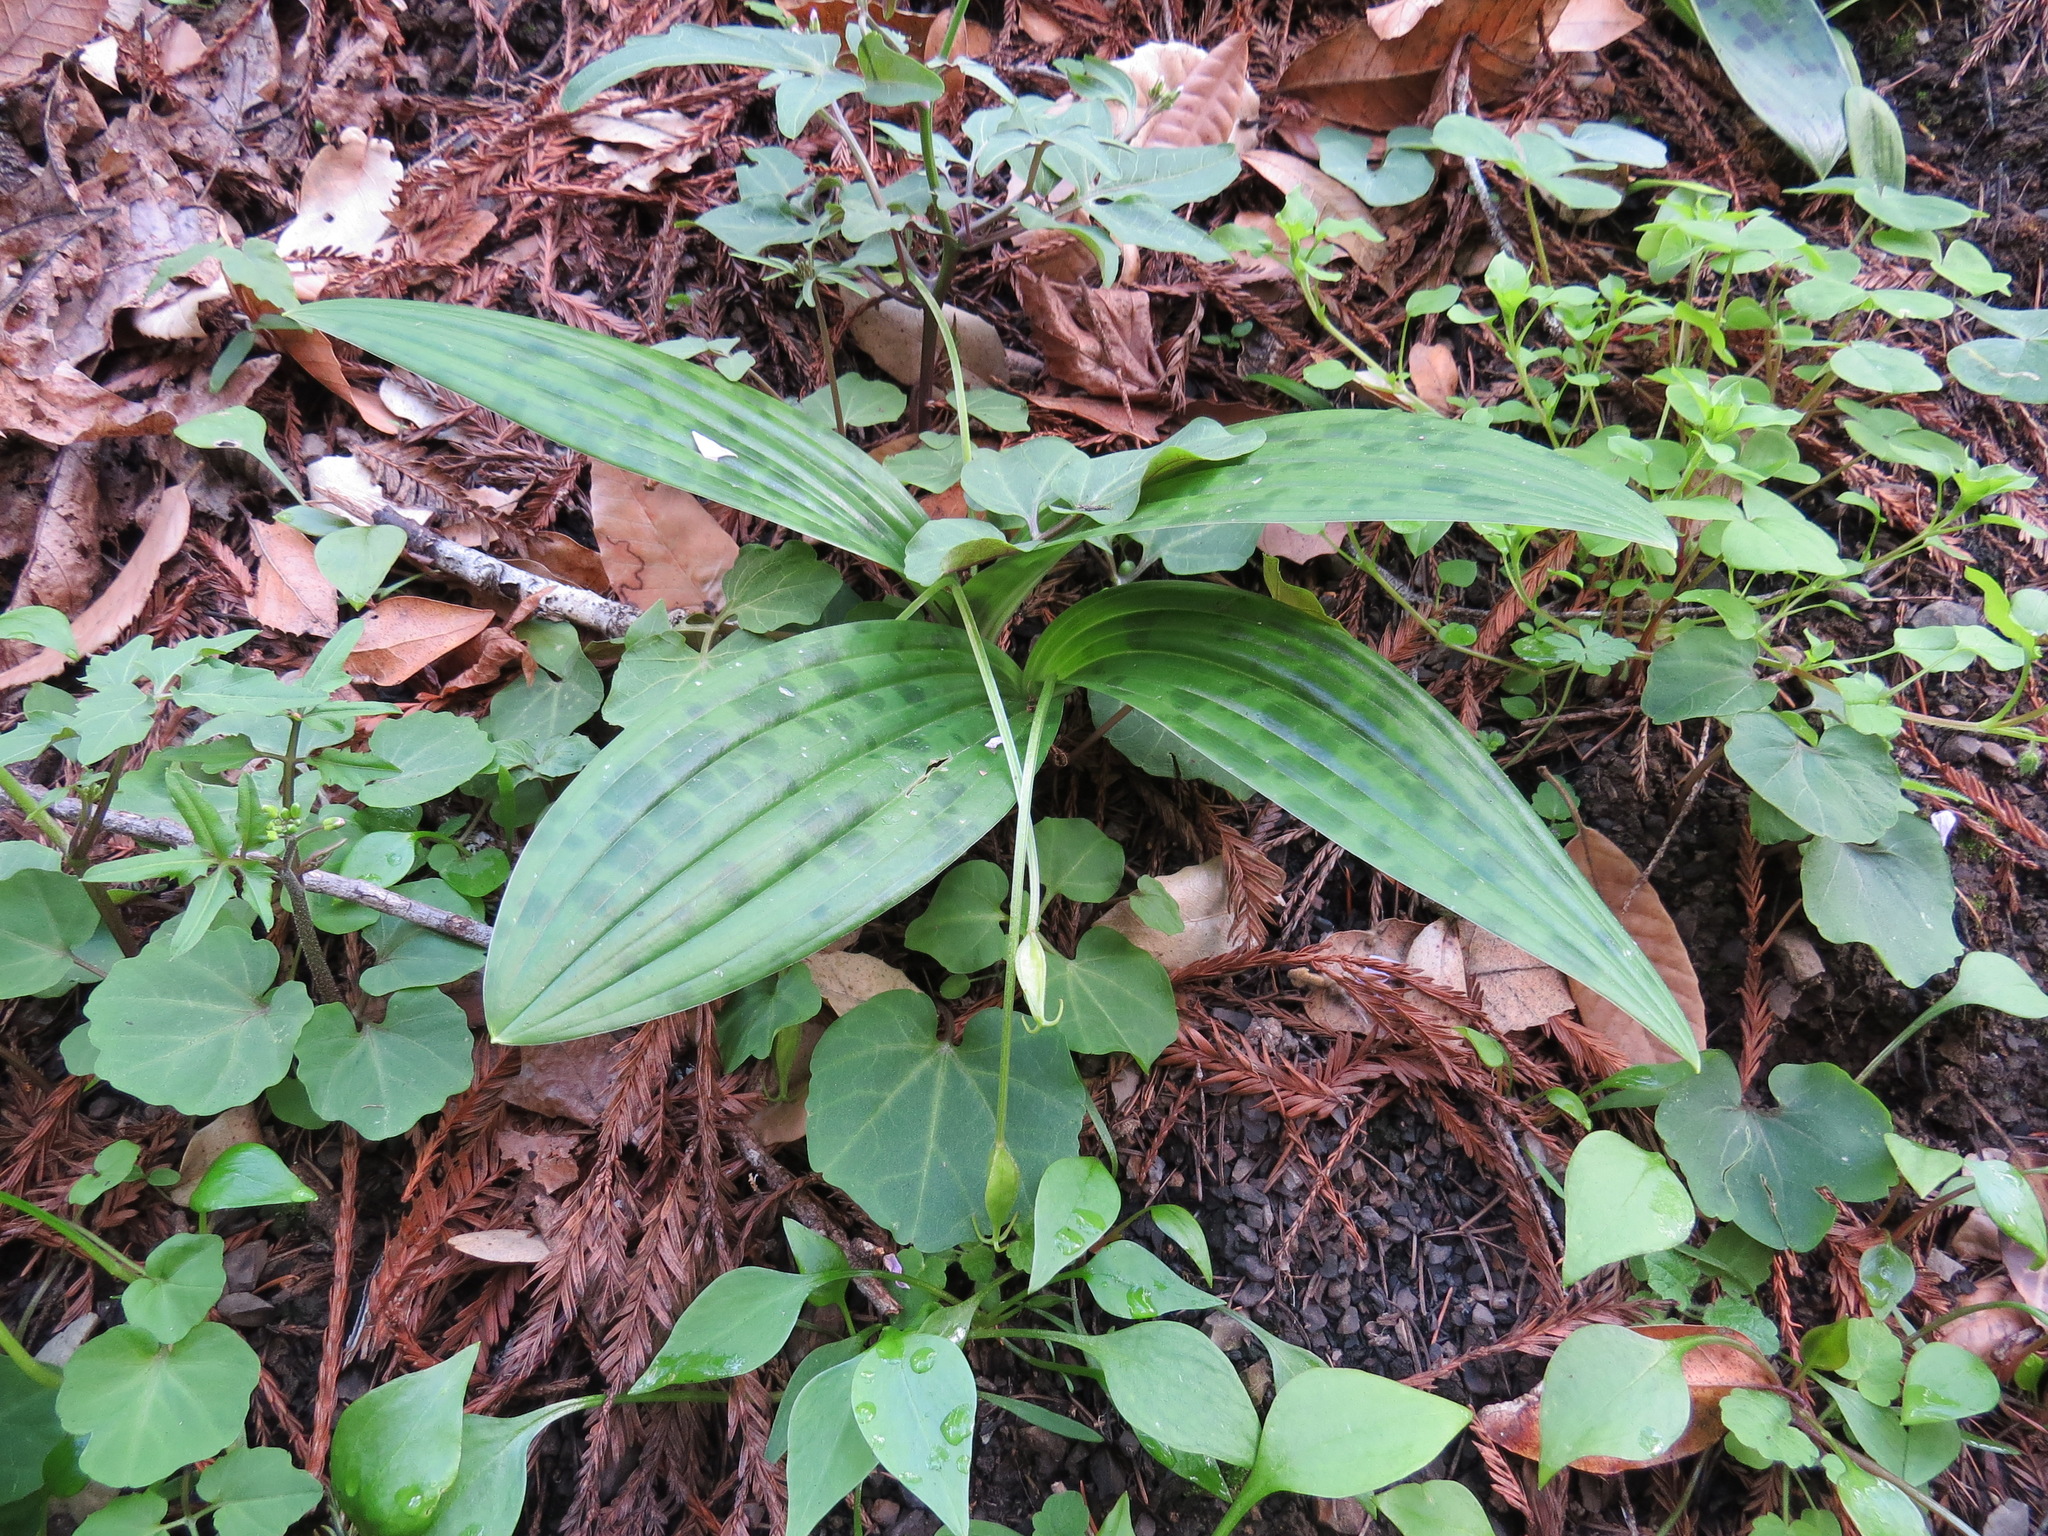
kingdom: Plantae
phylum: Tracheophyta
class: Liliopsida
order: Liliales
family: Liliaceae
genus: Scoliopus
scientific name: Scoliopus bigelovii
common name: Foetid adder's-tongue
